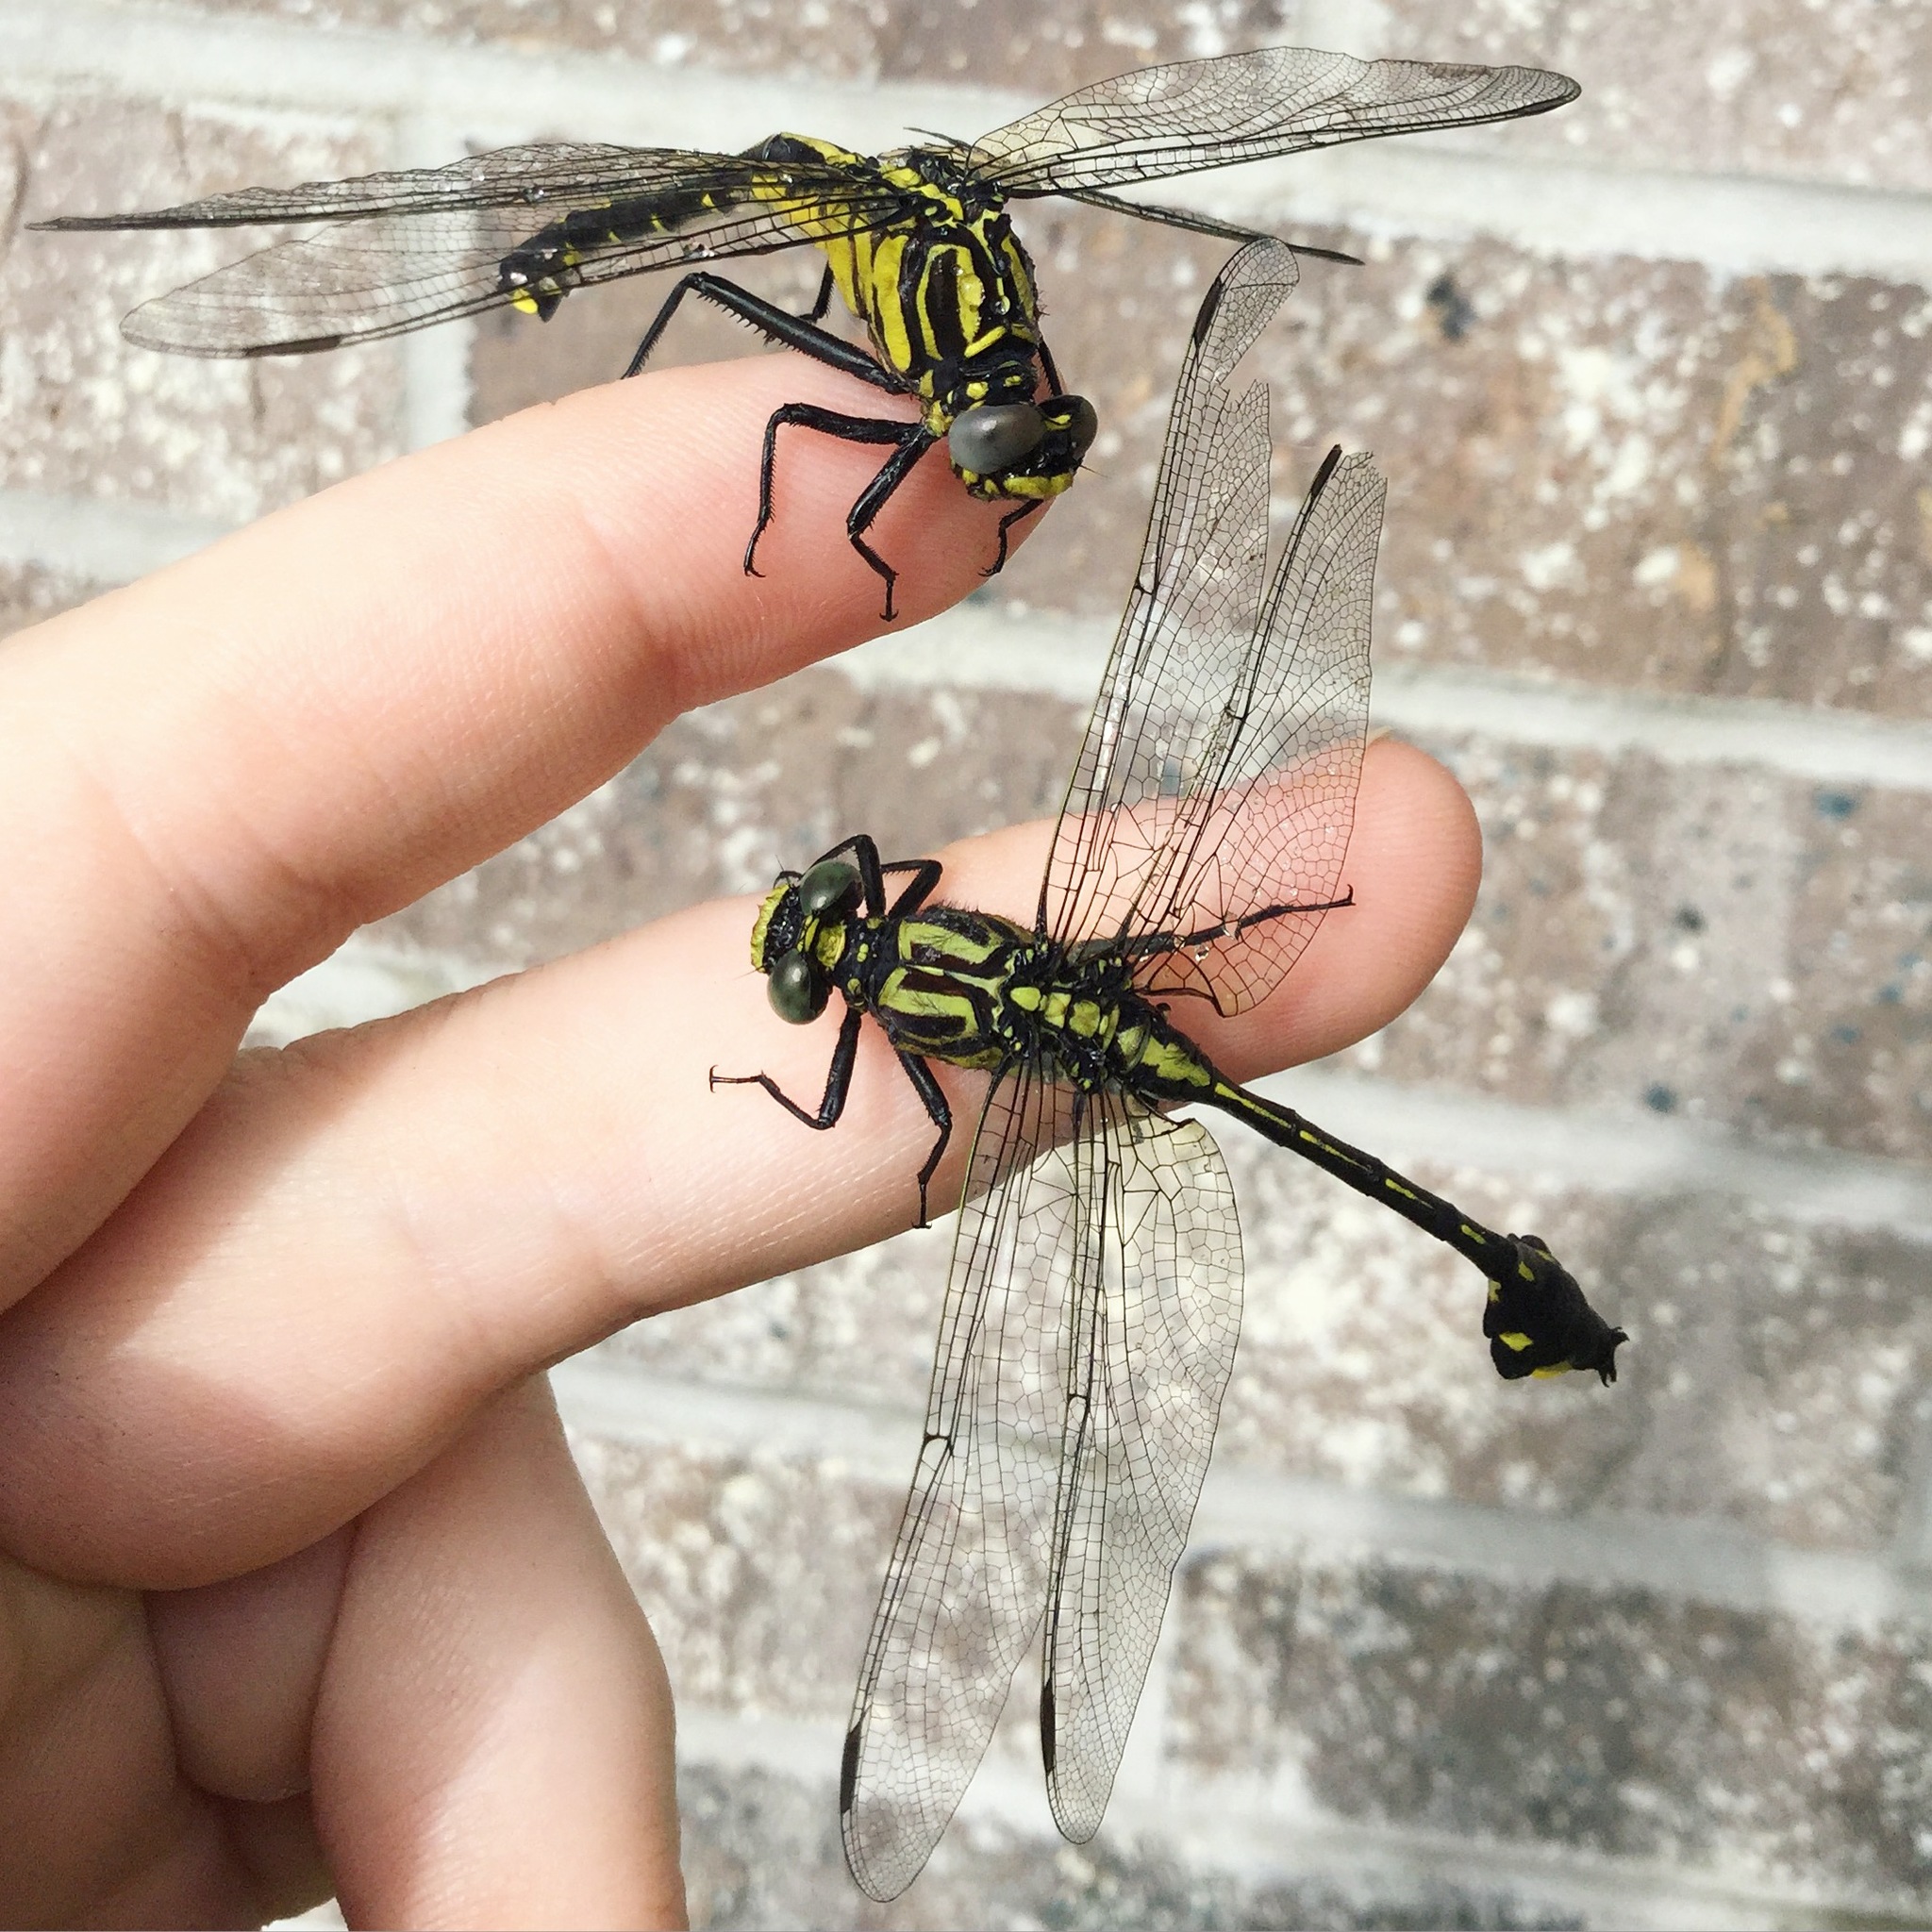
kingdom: Animalia
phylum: Arthropoda
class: Insecta
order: Odonata
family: Gomphidae
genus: Gomphurus
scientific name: Gomphurus vastus
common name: Cobra clubtail
